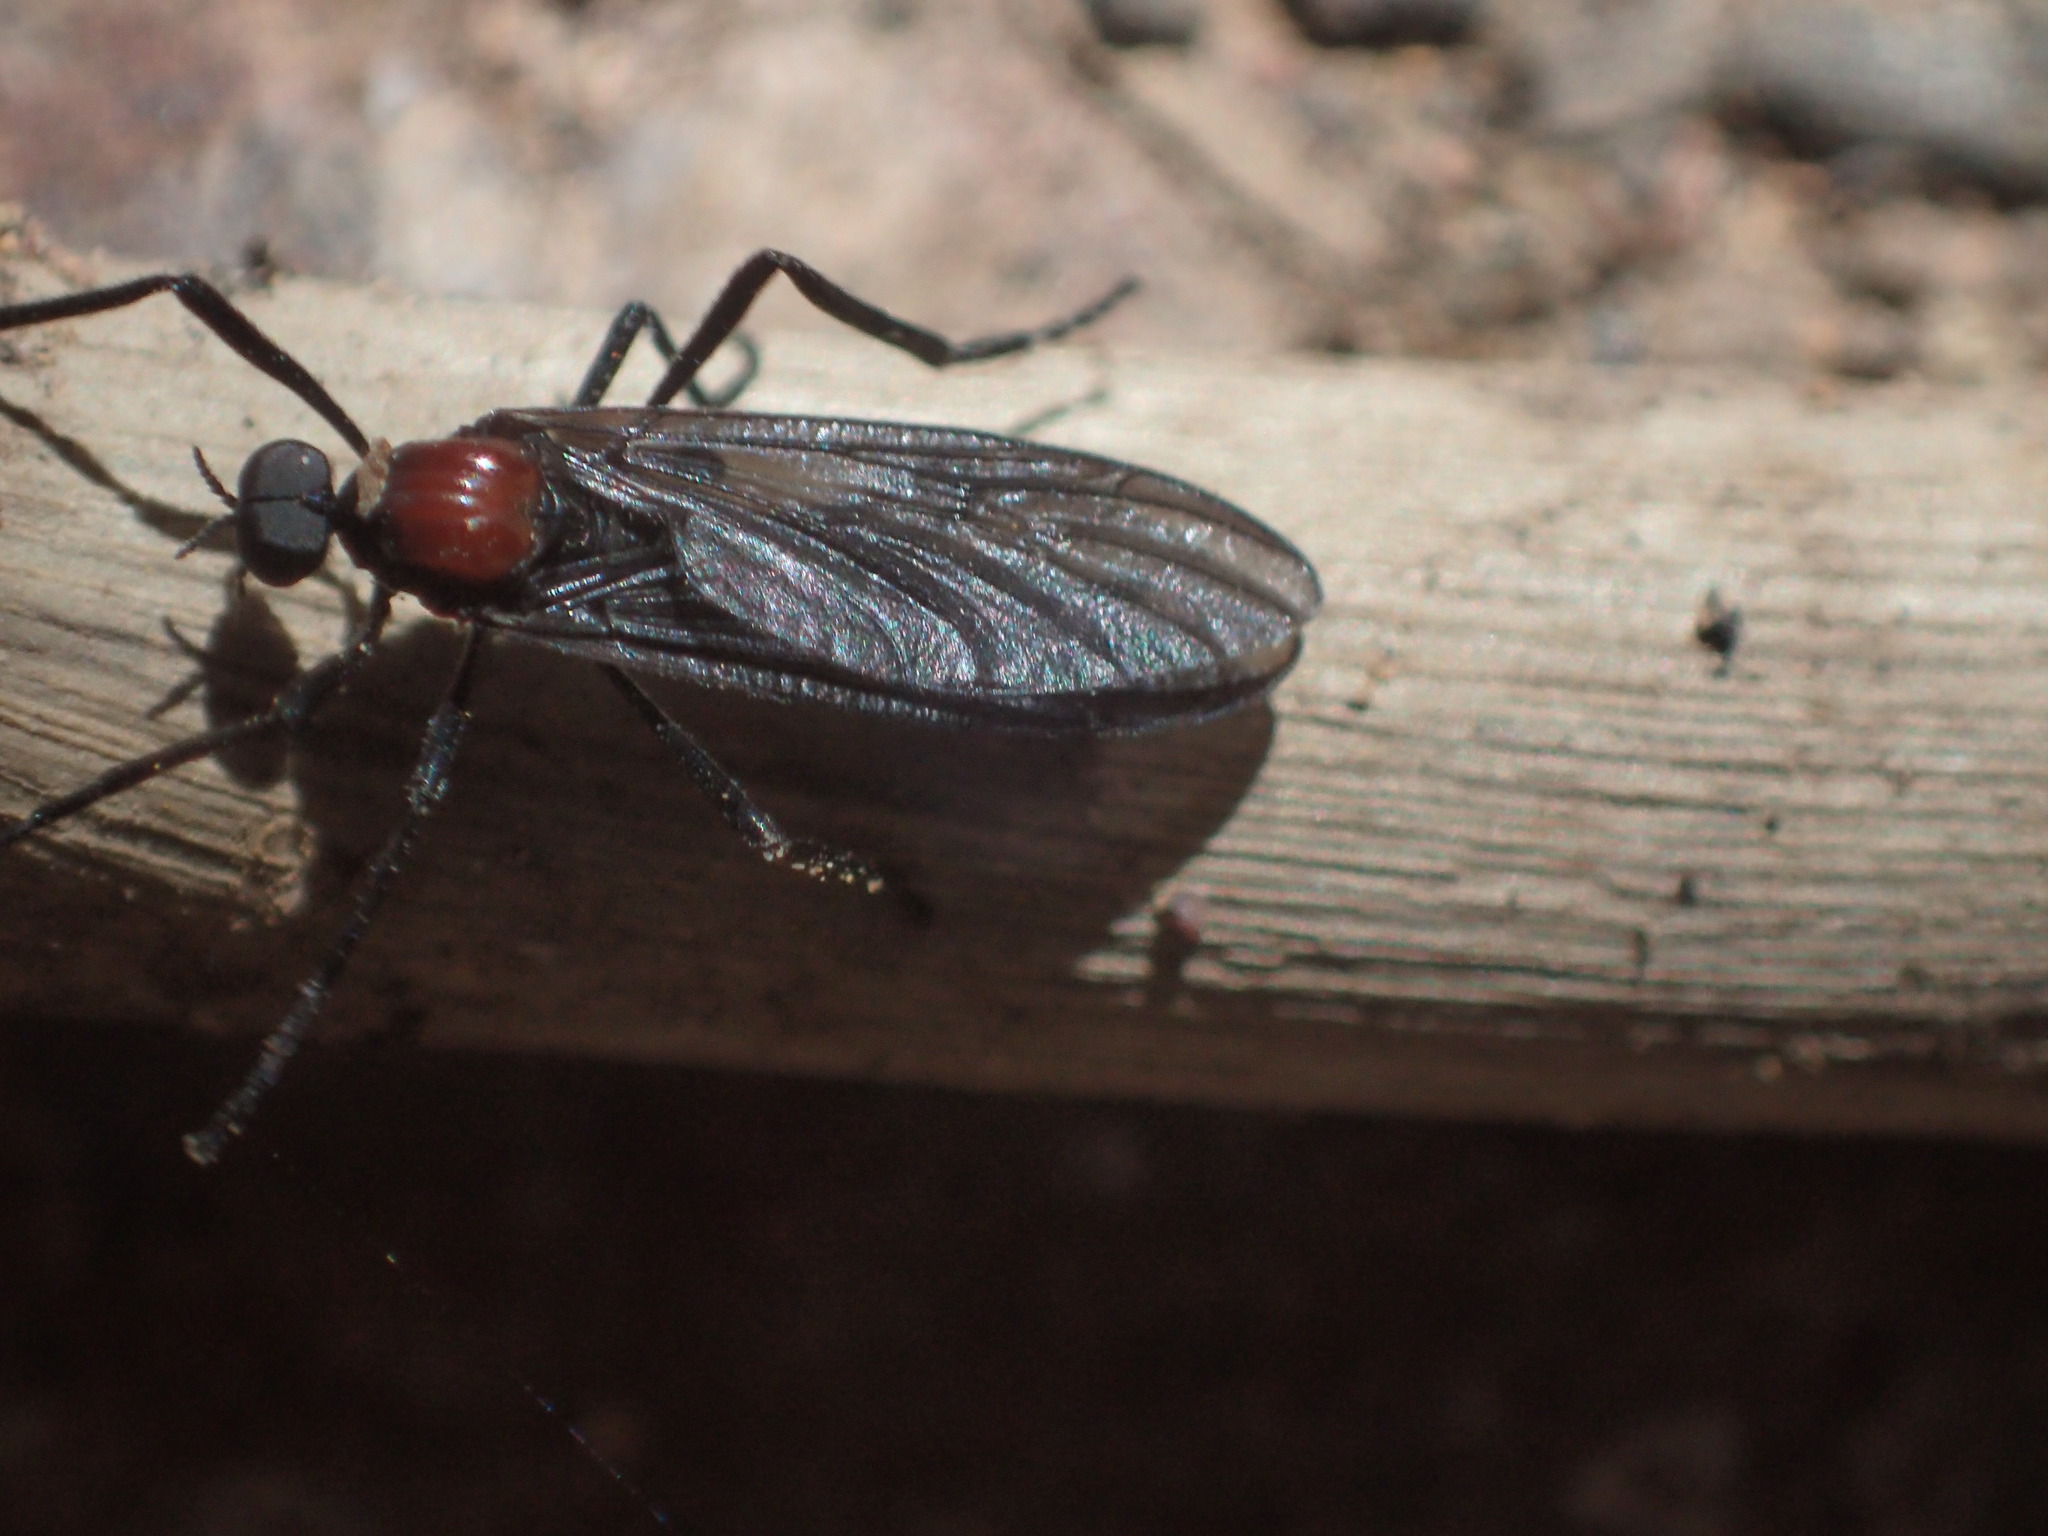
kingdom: Animalia
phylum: Arthropoda
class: Insecta
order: Diptera
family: Bibionidae
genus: Plecia
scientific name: Plecia dimidiata
